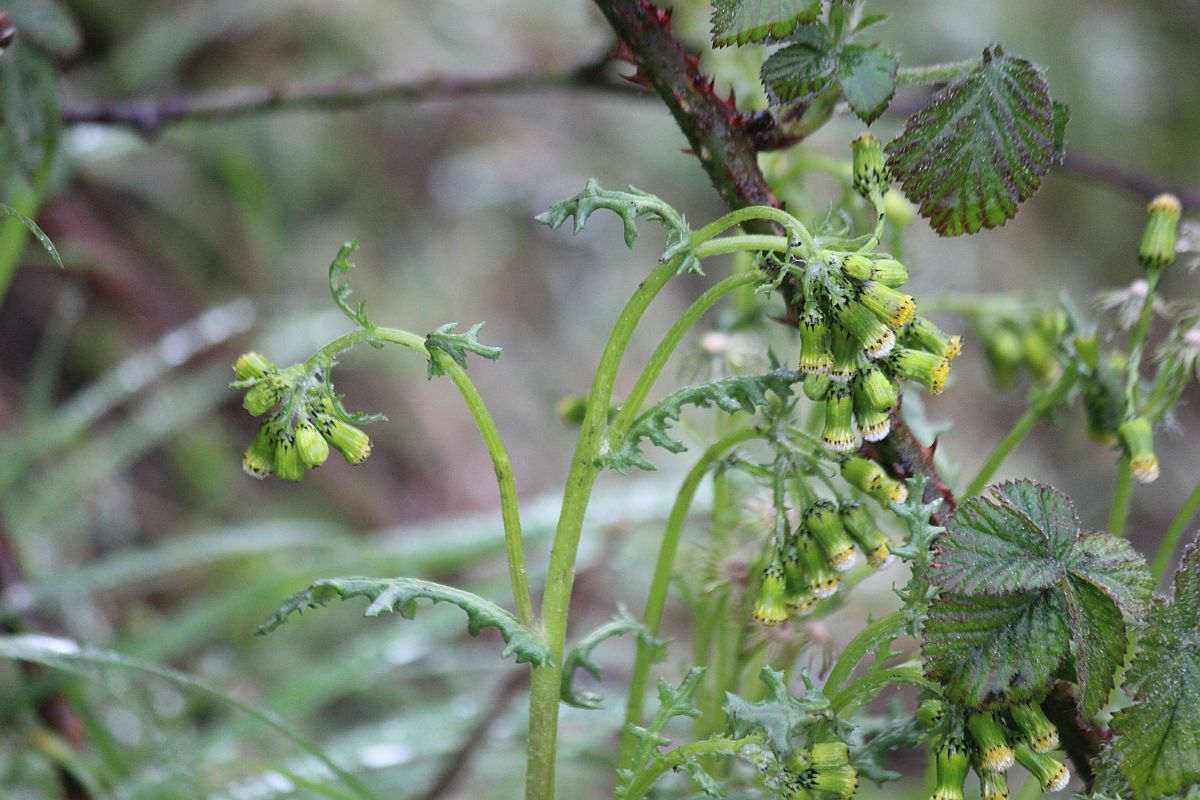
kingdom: Plantae
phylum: Tracheophyta
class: Magnoliopsida
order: Asterales
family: Asteraceae
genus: Senecio
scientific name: Senecio vulgaris
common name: Old-man-in-the-spring
